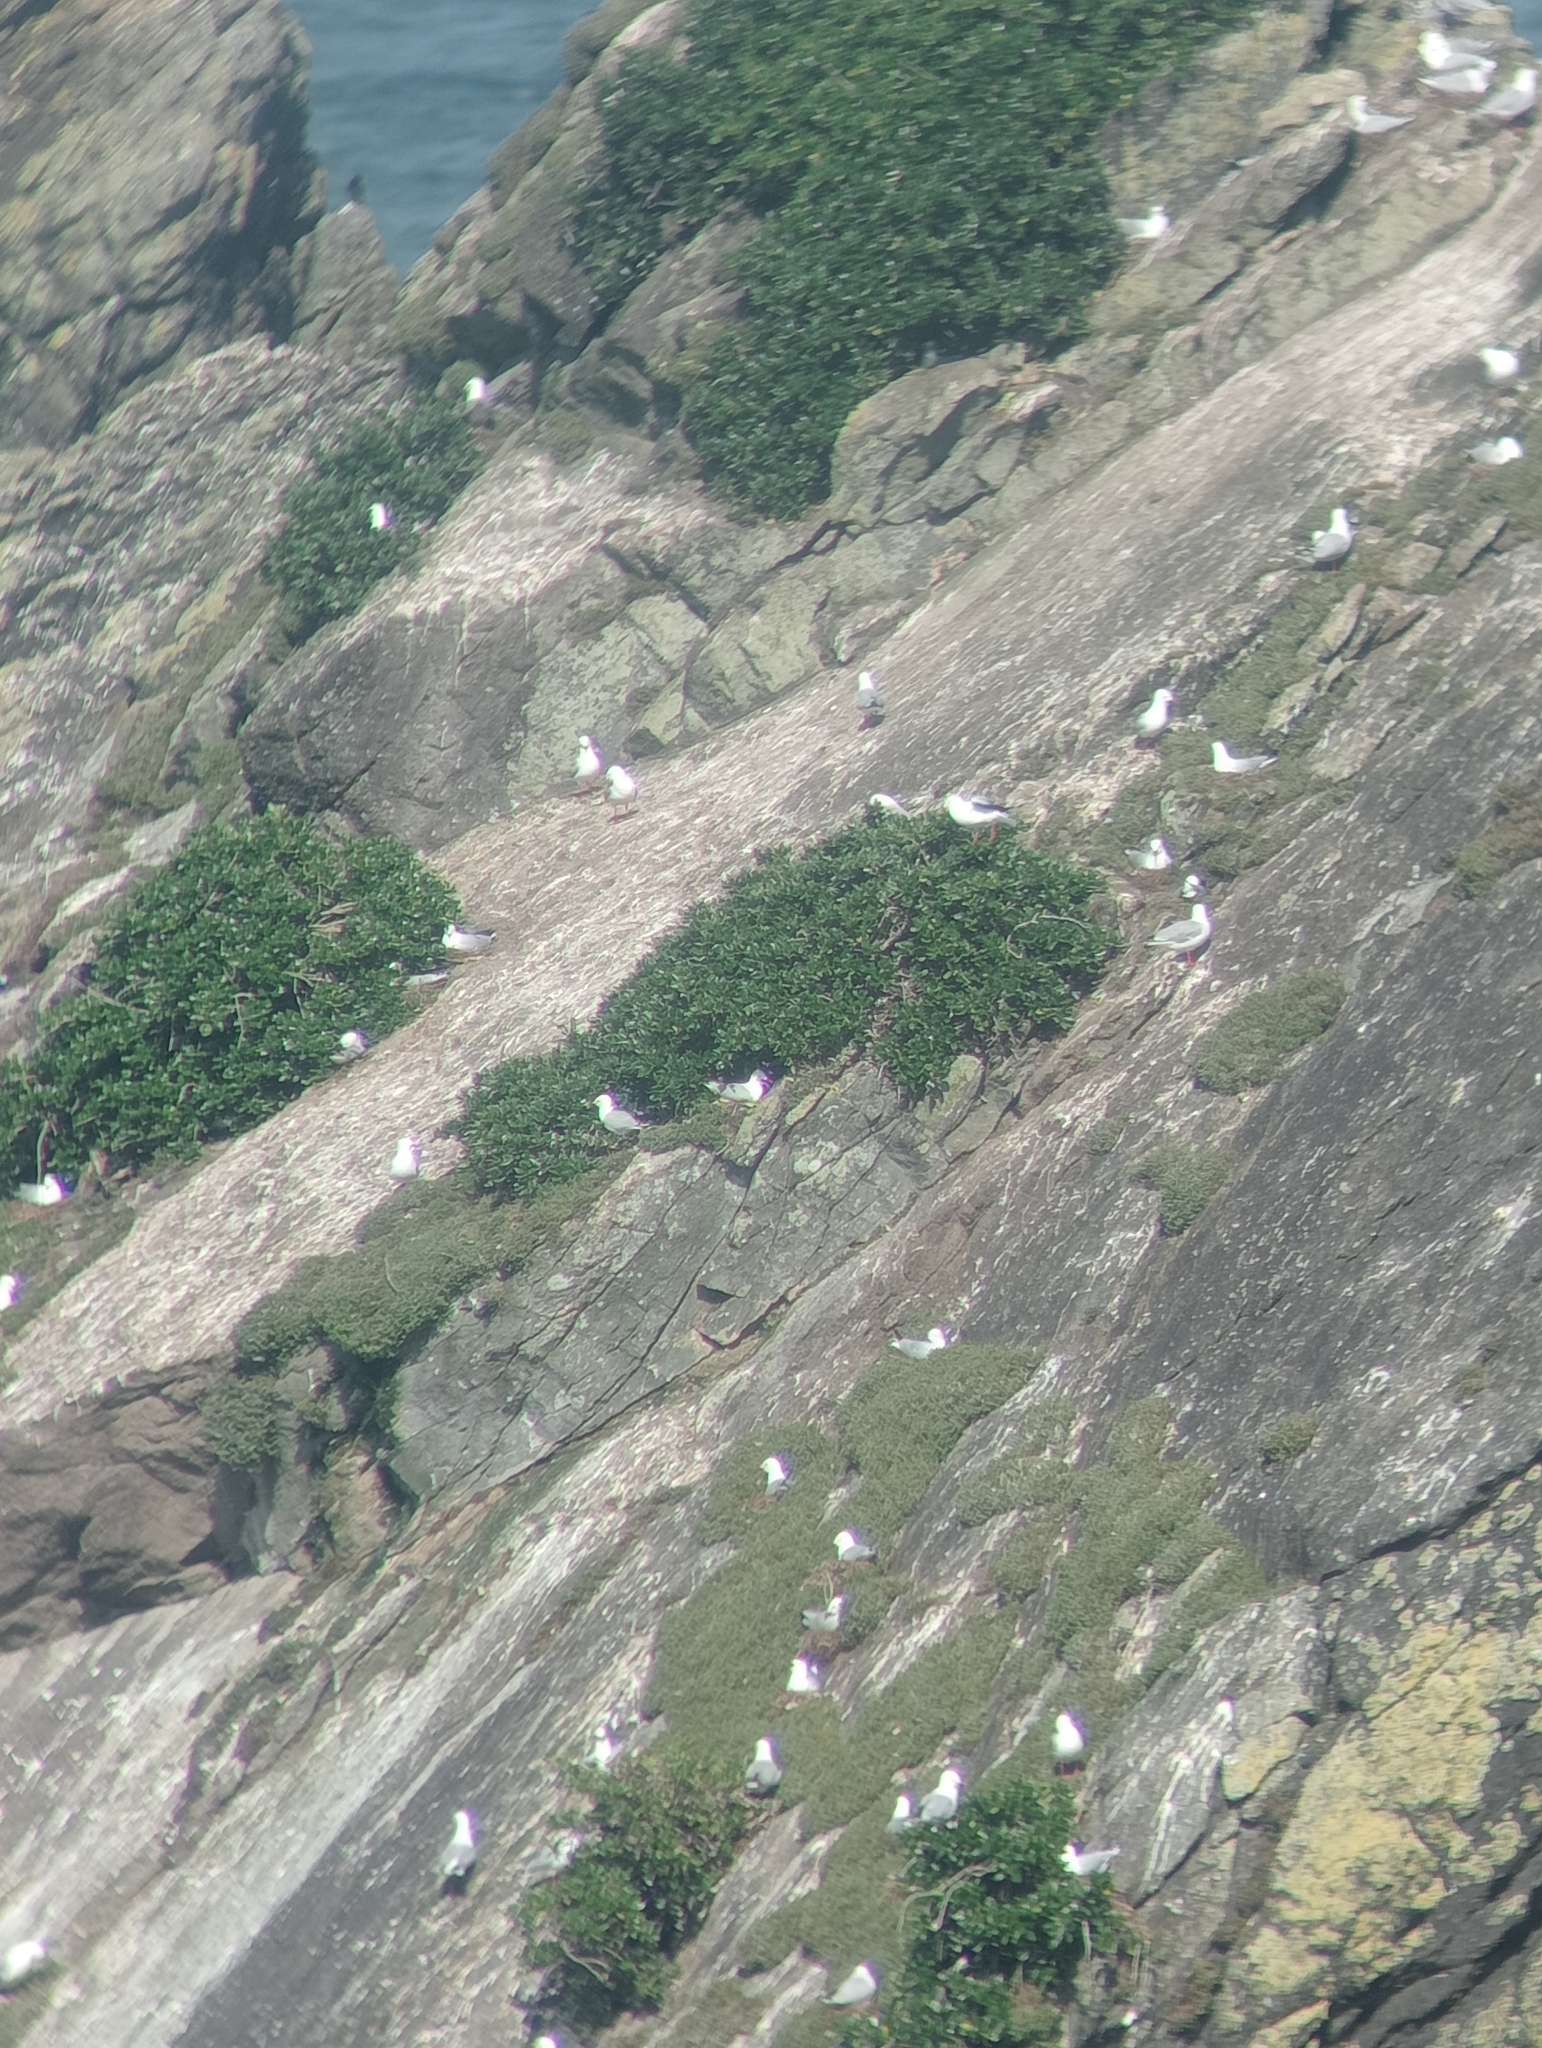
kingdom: Animalia
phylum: Chordata
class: Aves
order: Charadriiformes
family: Laridae
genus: Chroicocephalus
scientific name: Chroicocephalus novaehollandiae
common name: Silver gull
